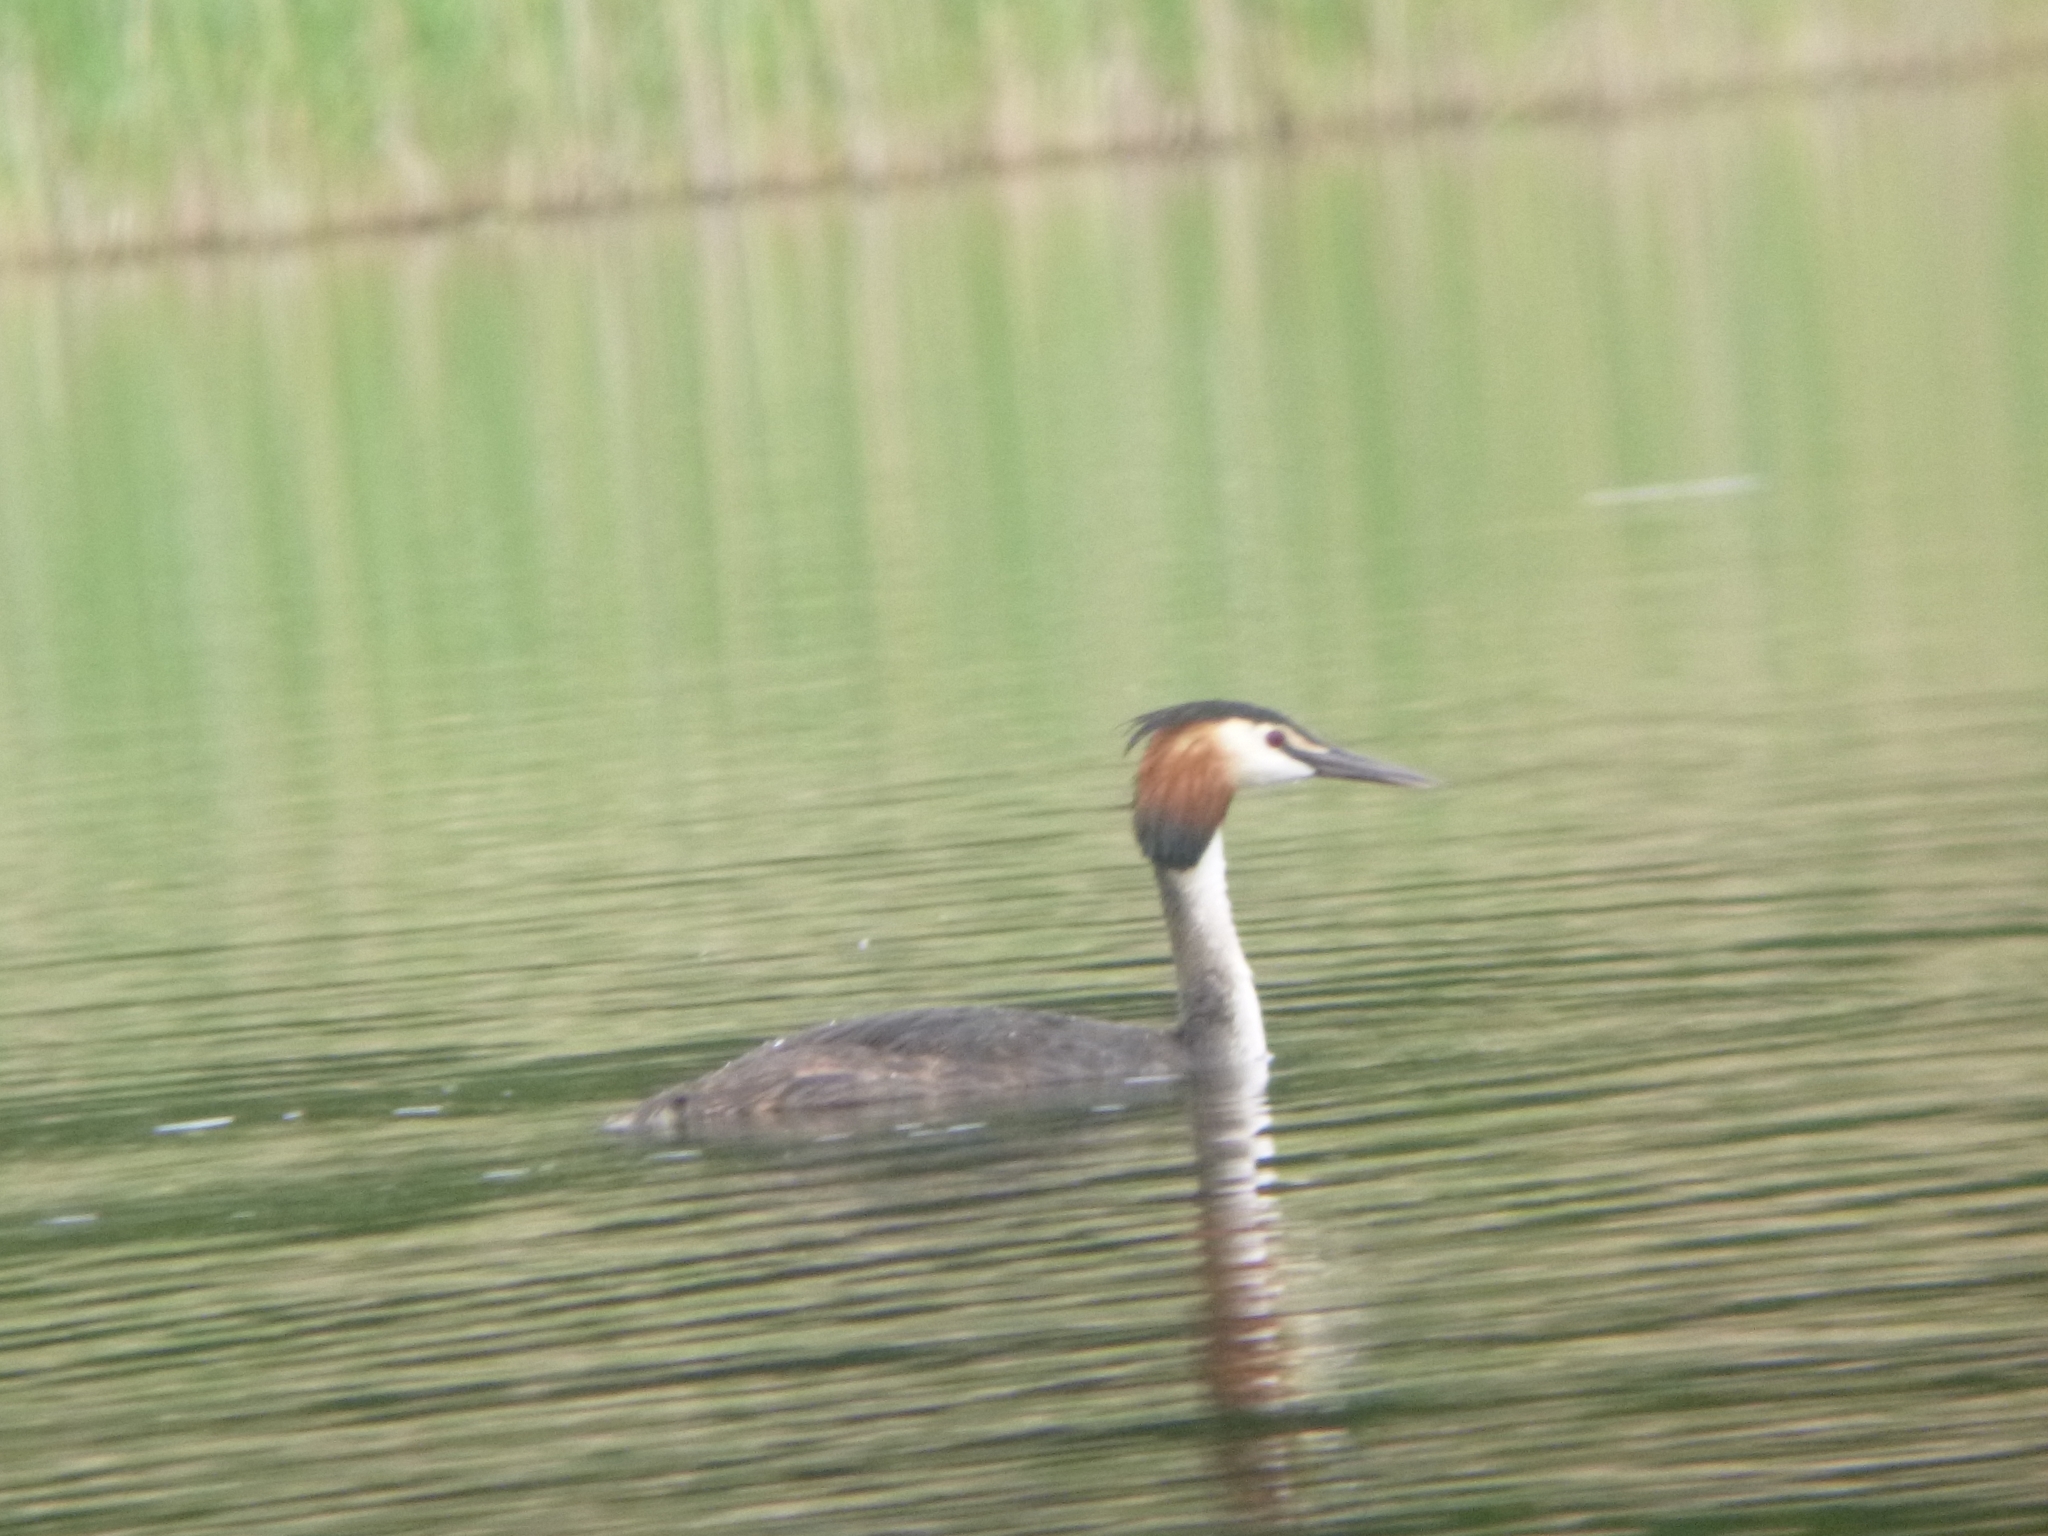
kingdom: Animalia
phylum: Chordata
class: Aves
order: Podicipediformes
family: Podicipedidae
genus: Podiceps
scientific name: Podiceps cristatus
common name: Great crested grebe
